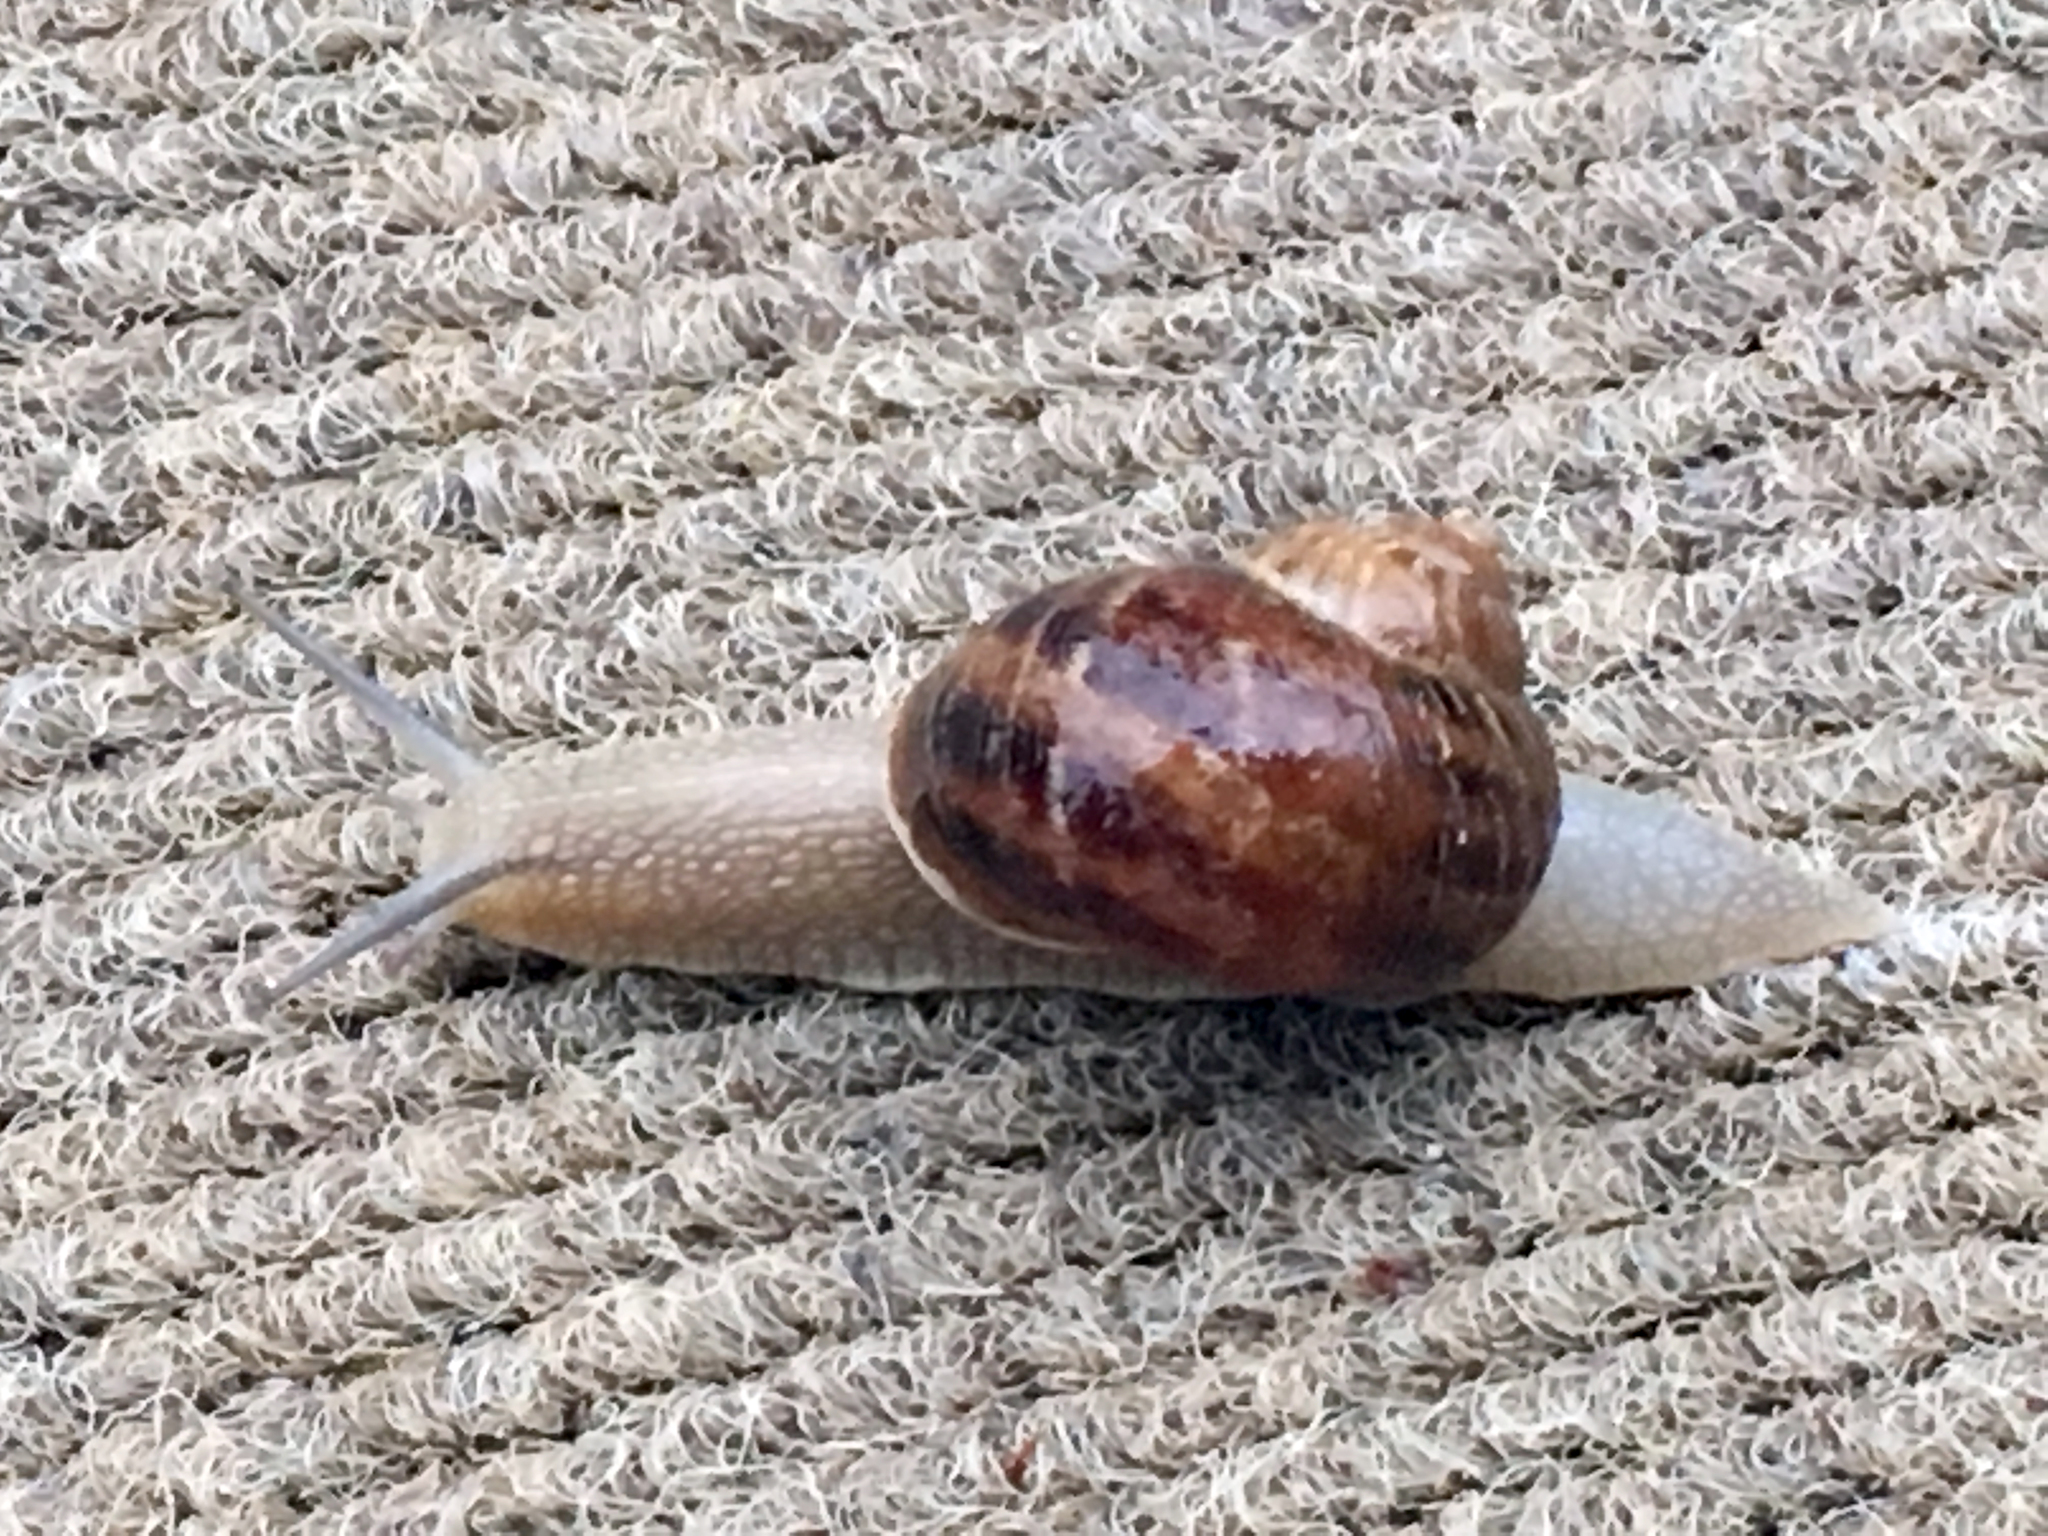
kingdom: Animalia
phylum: Mollusca
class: Gastropoda
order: Stylommatophora
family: Helicidae
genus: Cornu
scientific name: Cornu aspersum
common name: Brown garden snail
